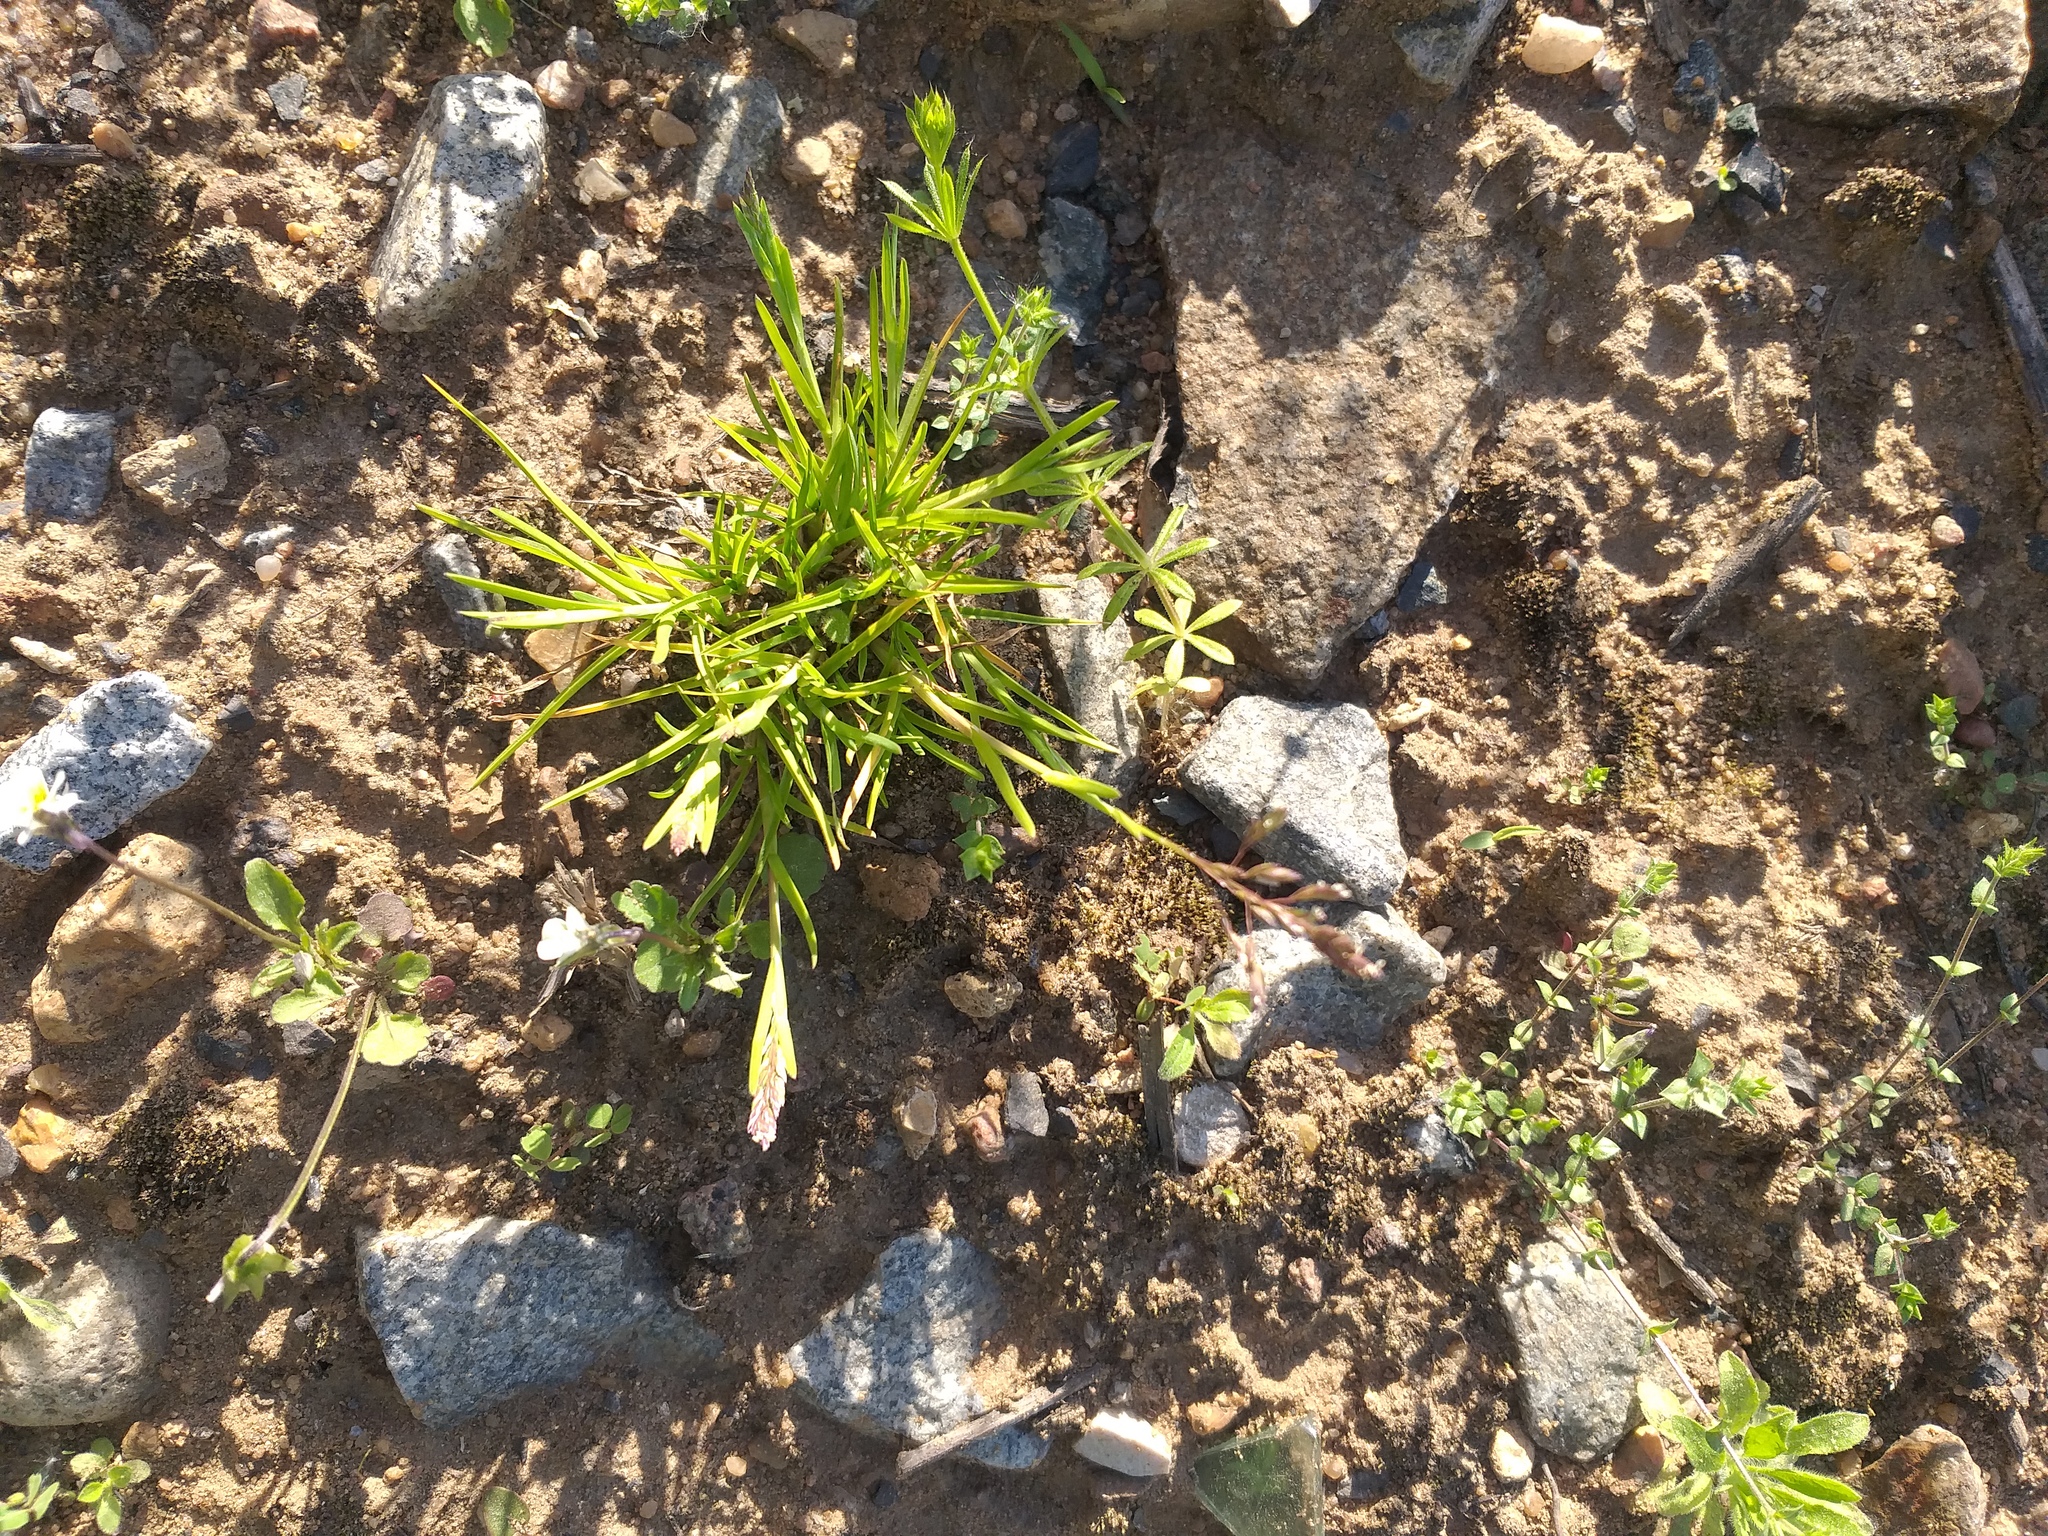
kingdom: Plantae
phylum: Tracheophyta
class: Liliopsida
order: Poales
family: Poaceae
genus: Poa
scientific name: Poa annua
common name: Annual bluegrass
